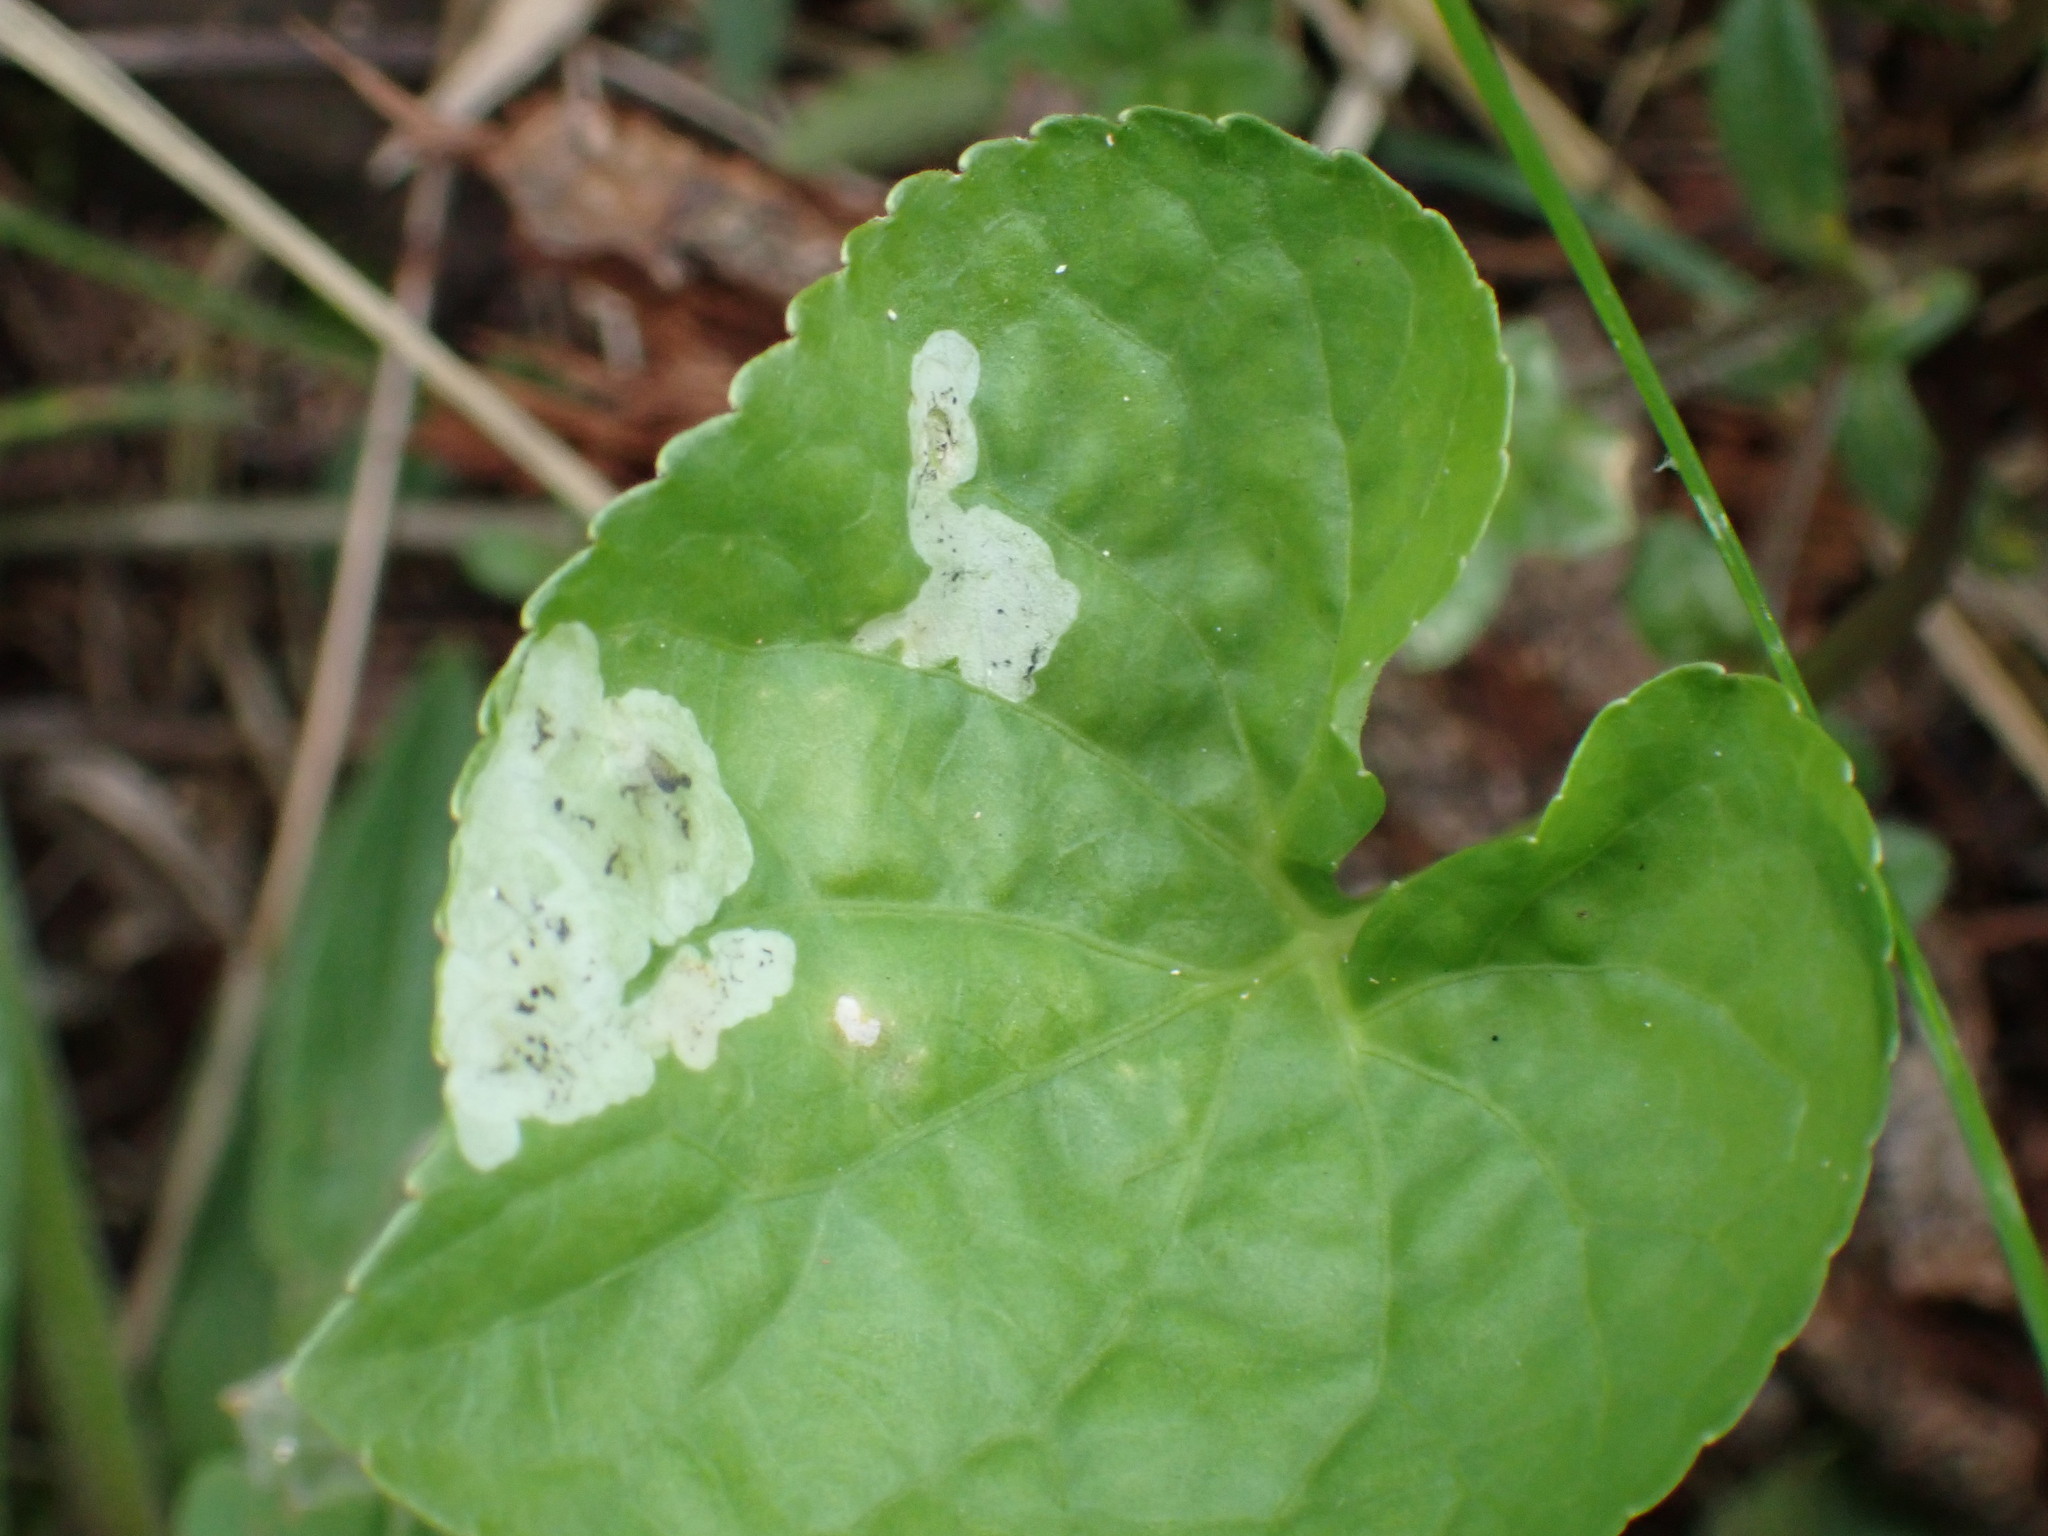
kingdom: Animalia
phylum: Arthropoda
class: Insecta
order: Diptera
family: Agromyzidae
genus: Liriomyza
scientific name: Liriomyza violivora
